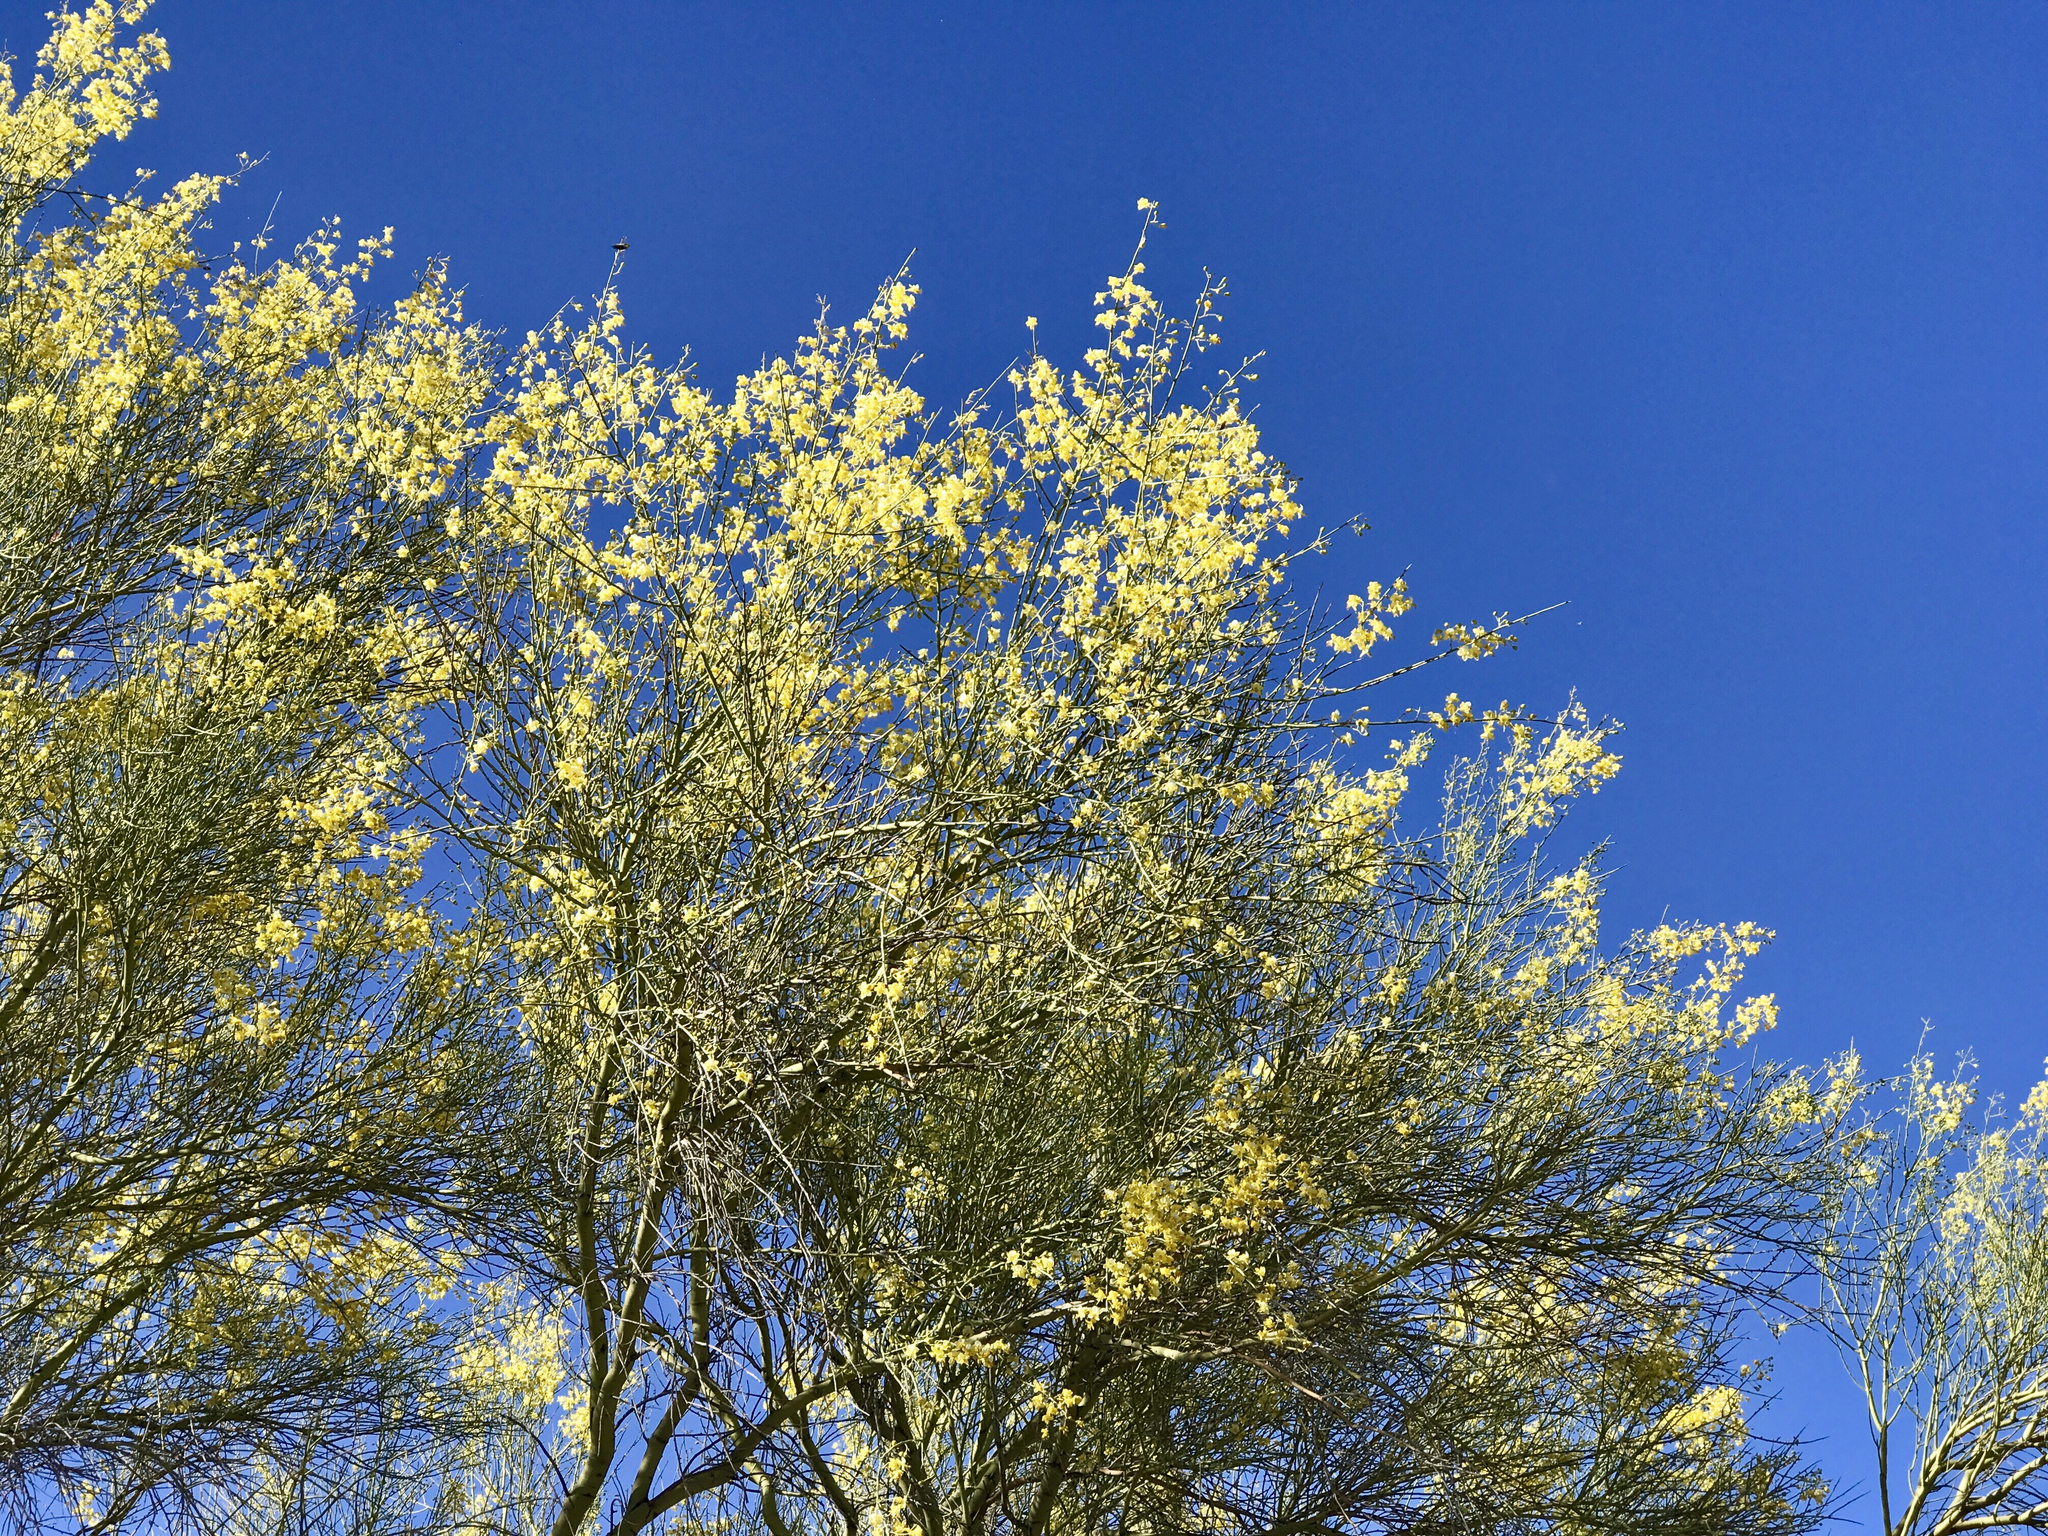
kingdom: Plantae
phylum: Tracheophyta
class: Magnoliopsida
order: Fabales
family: Fabaceae
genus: Parkinsonia
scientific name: Parkinsonia microphylla
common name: Yellow paloverde
